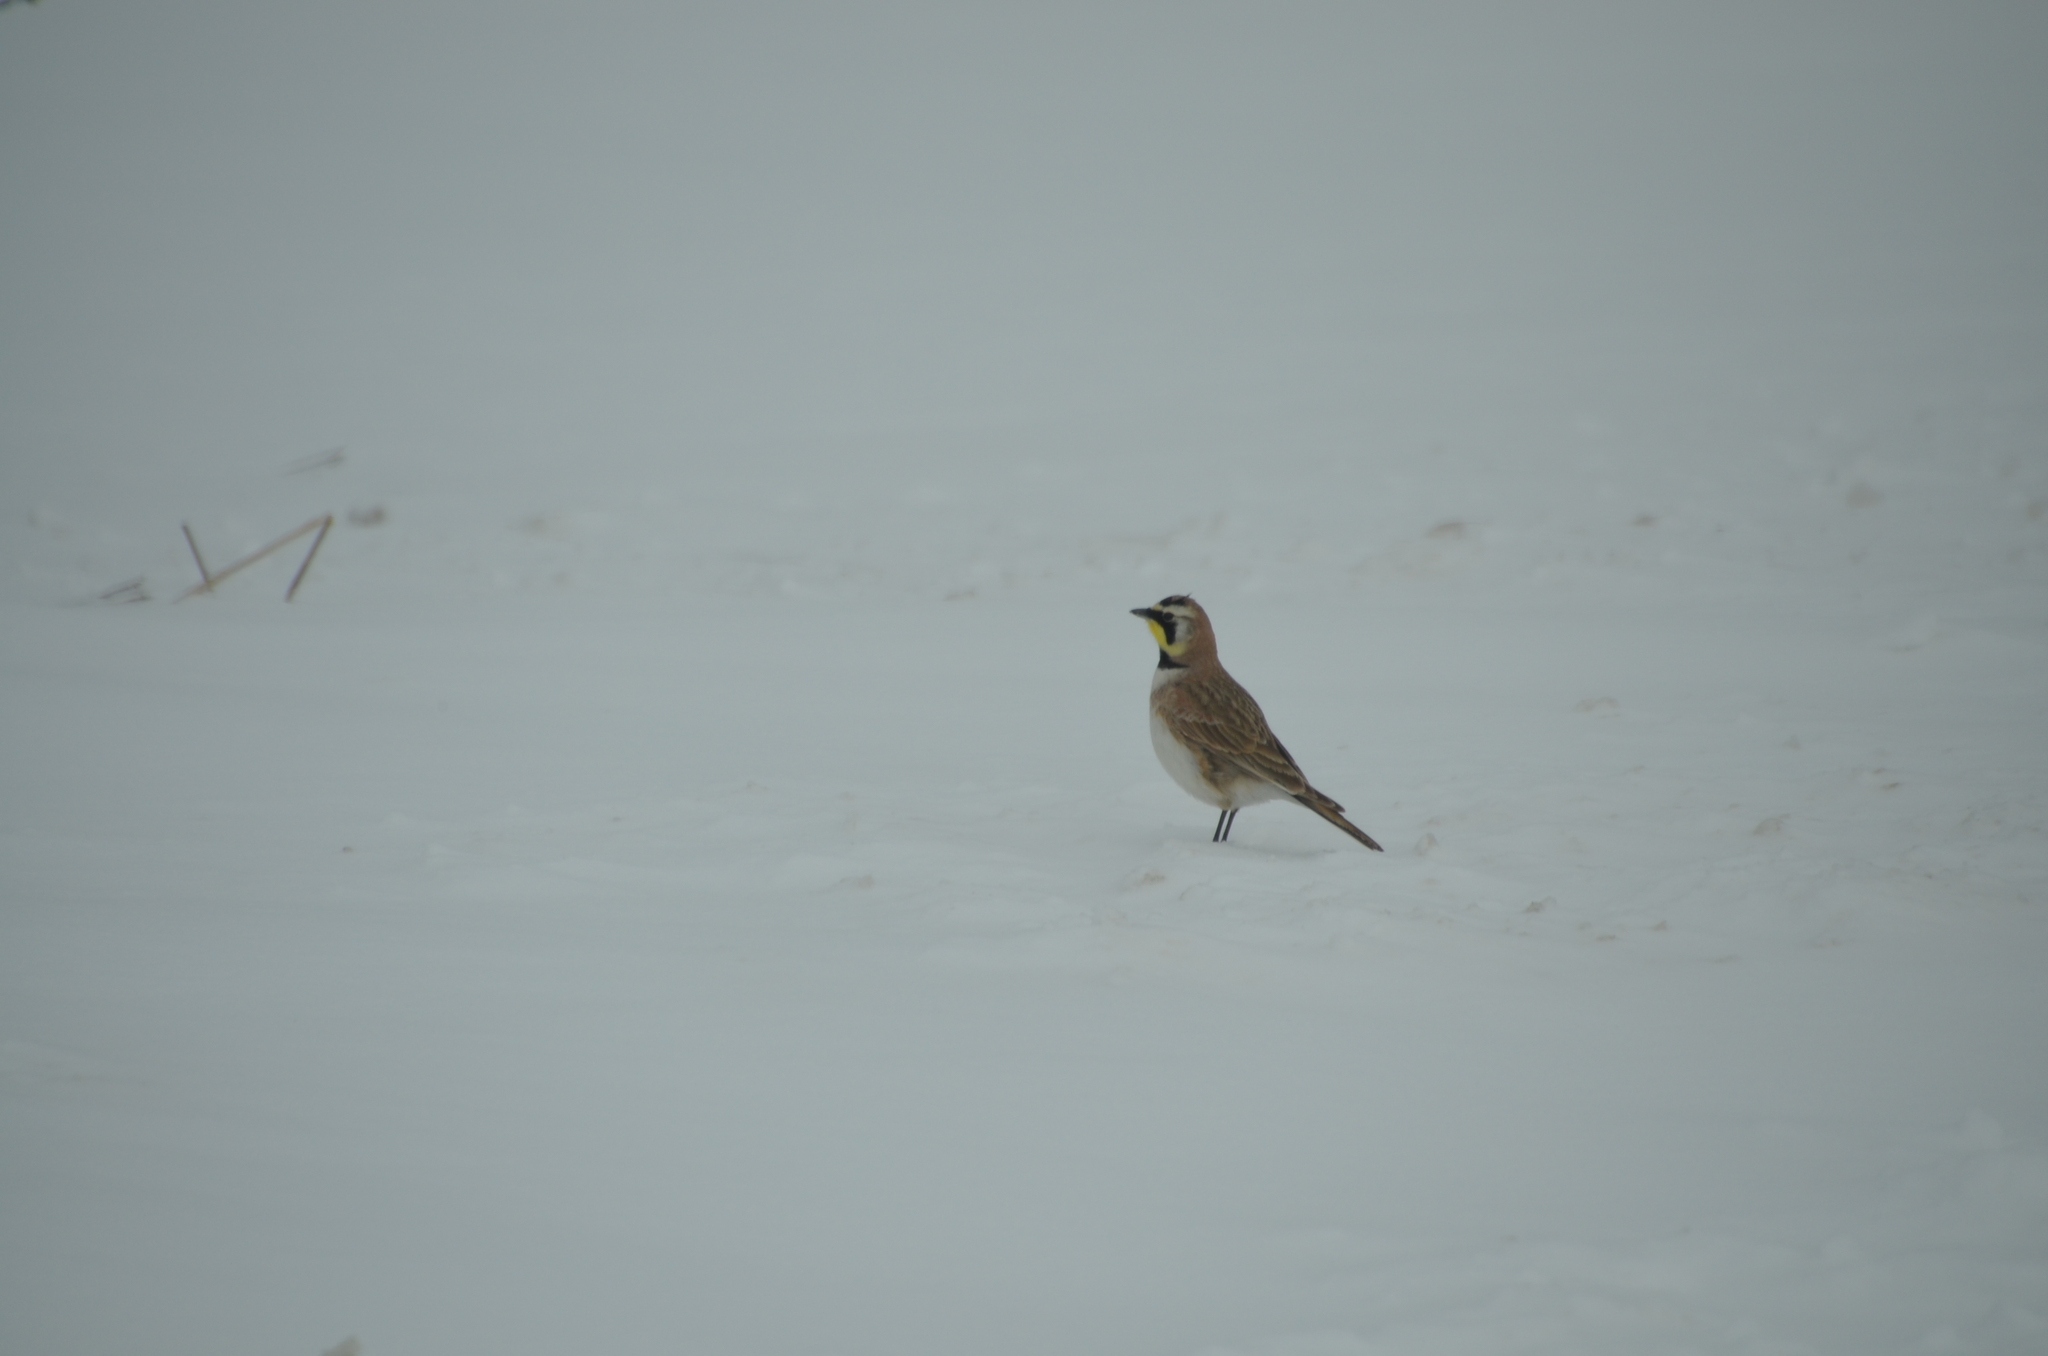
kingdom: Animalia
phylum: Chordata
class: Aves
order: Passeriformes
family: Alaudidae
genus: Eremophila
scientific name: Eremophila alpestris
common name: Horned lark
